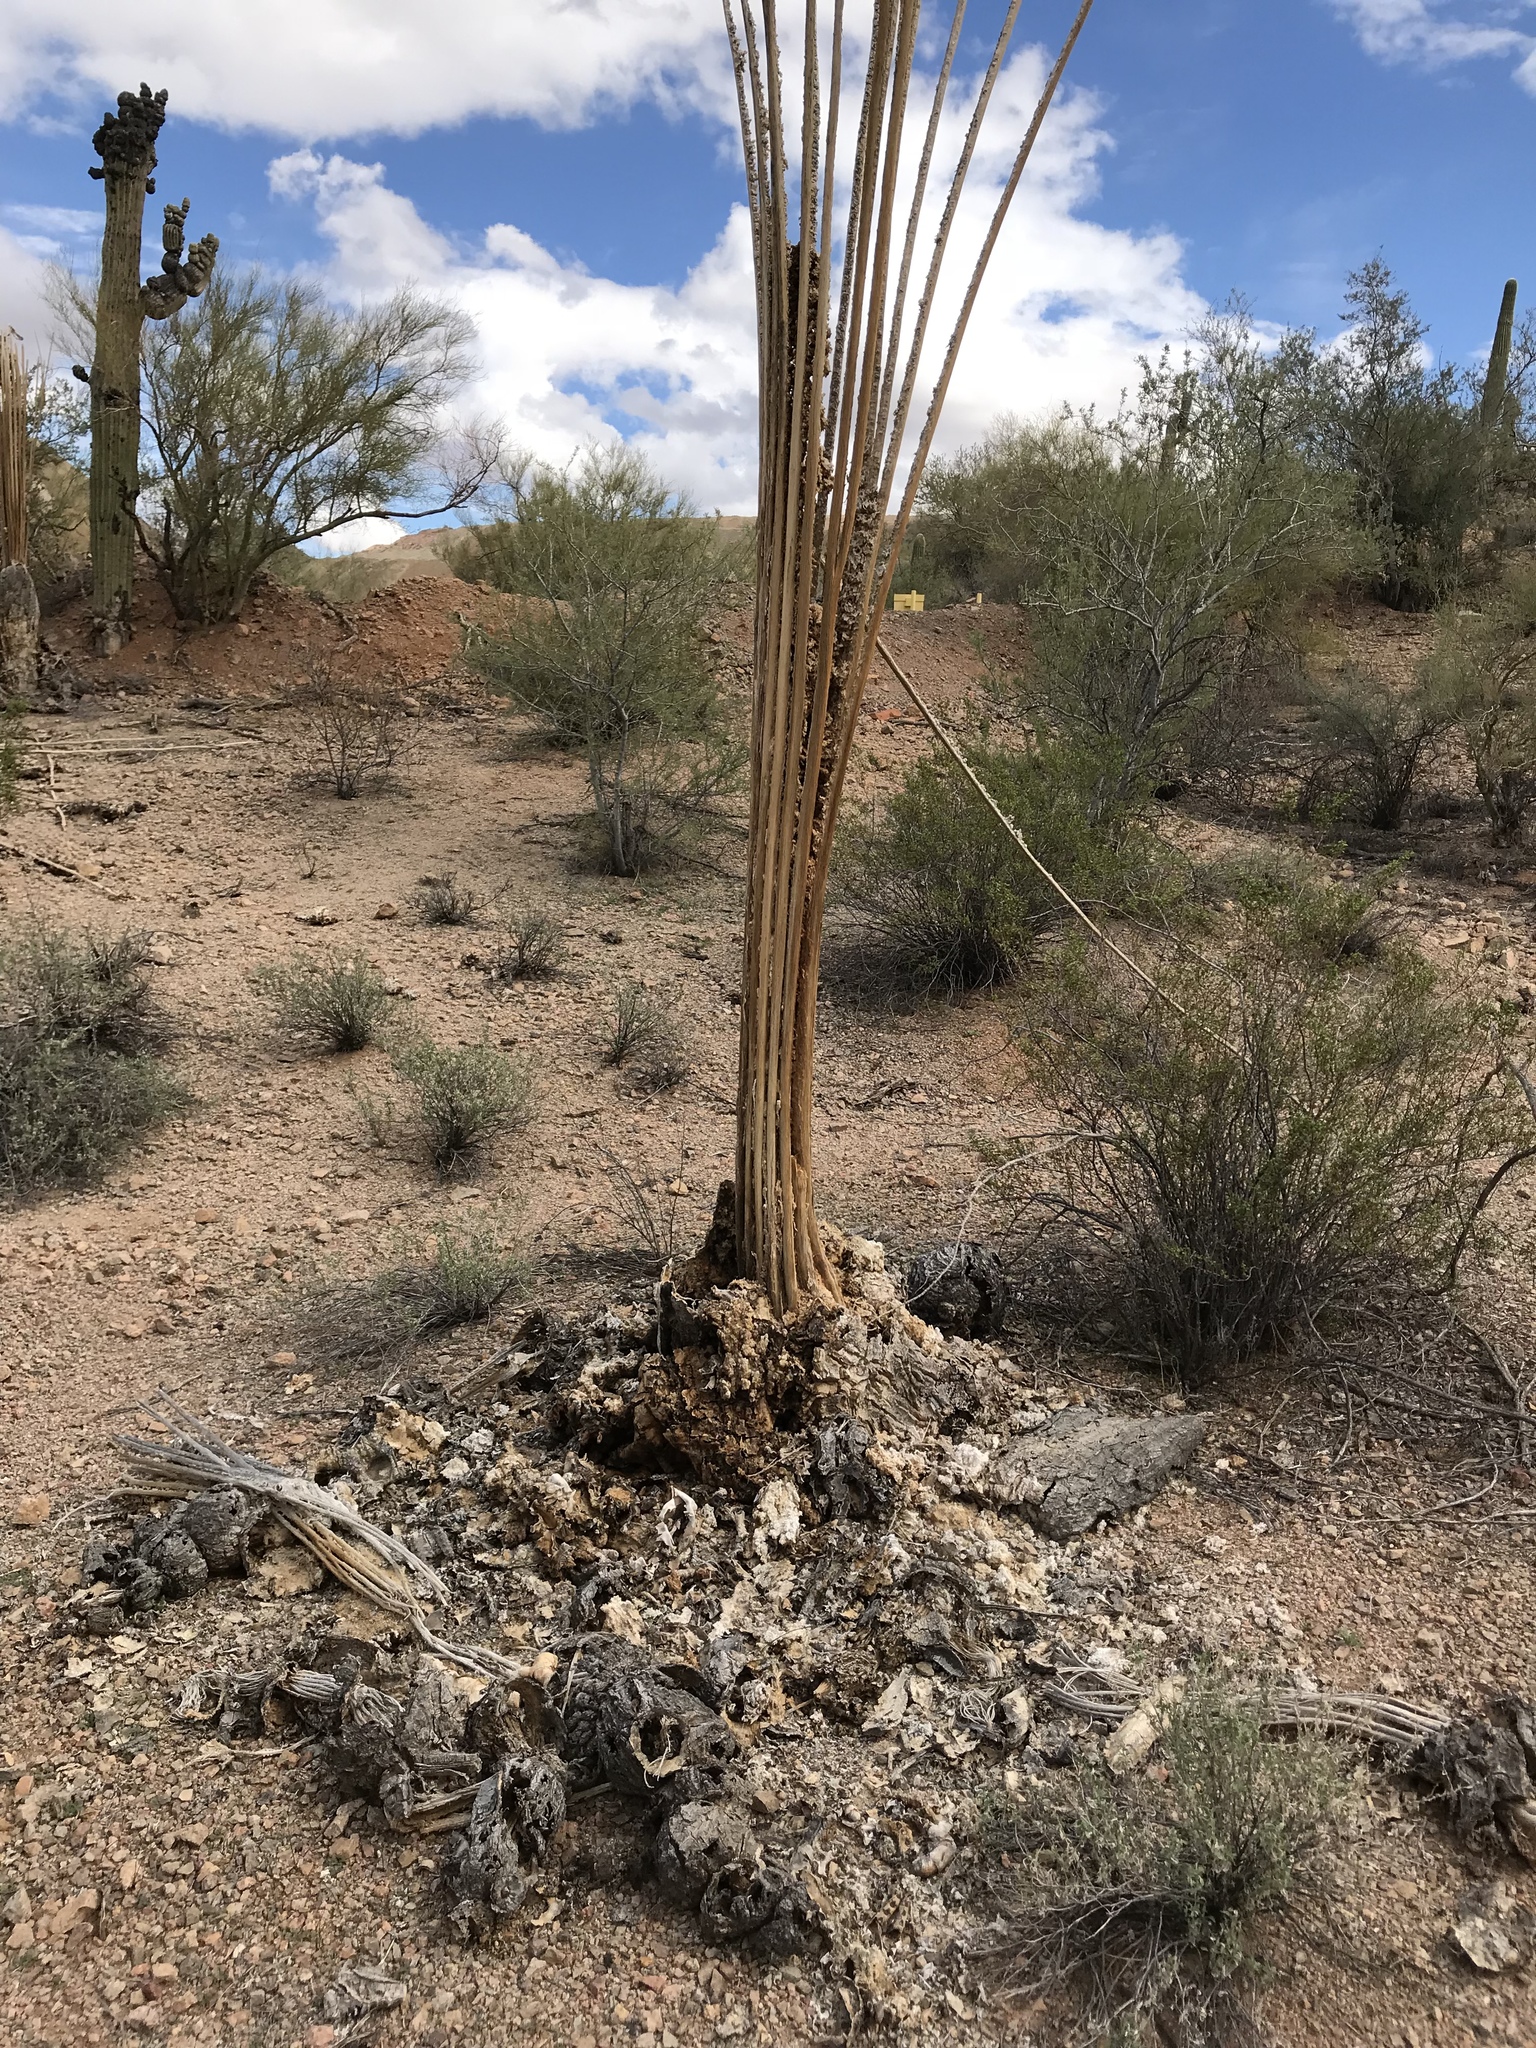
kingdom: Plantae
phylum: Tracheophyta
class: Magnoliopsida
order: Caryophyllales
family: Cactaceae
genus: Carnegiea
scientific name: Carnegiea gigantea
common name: Saguaro
